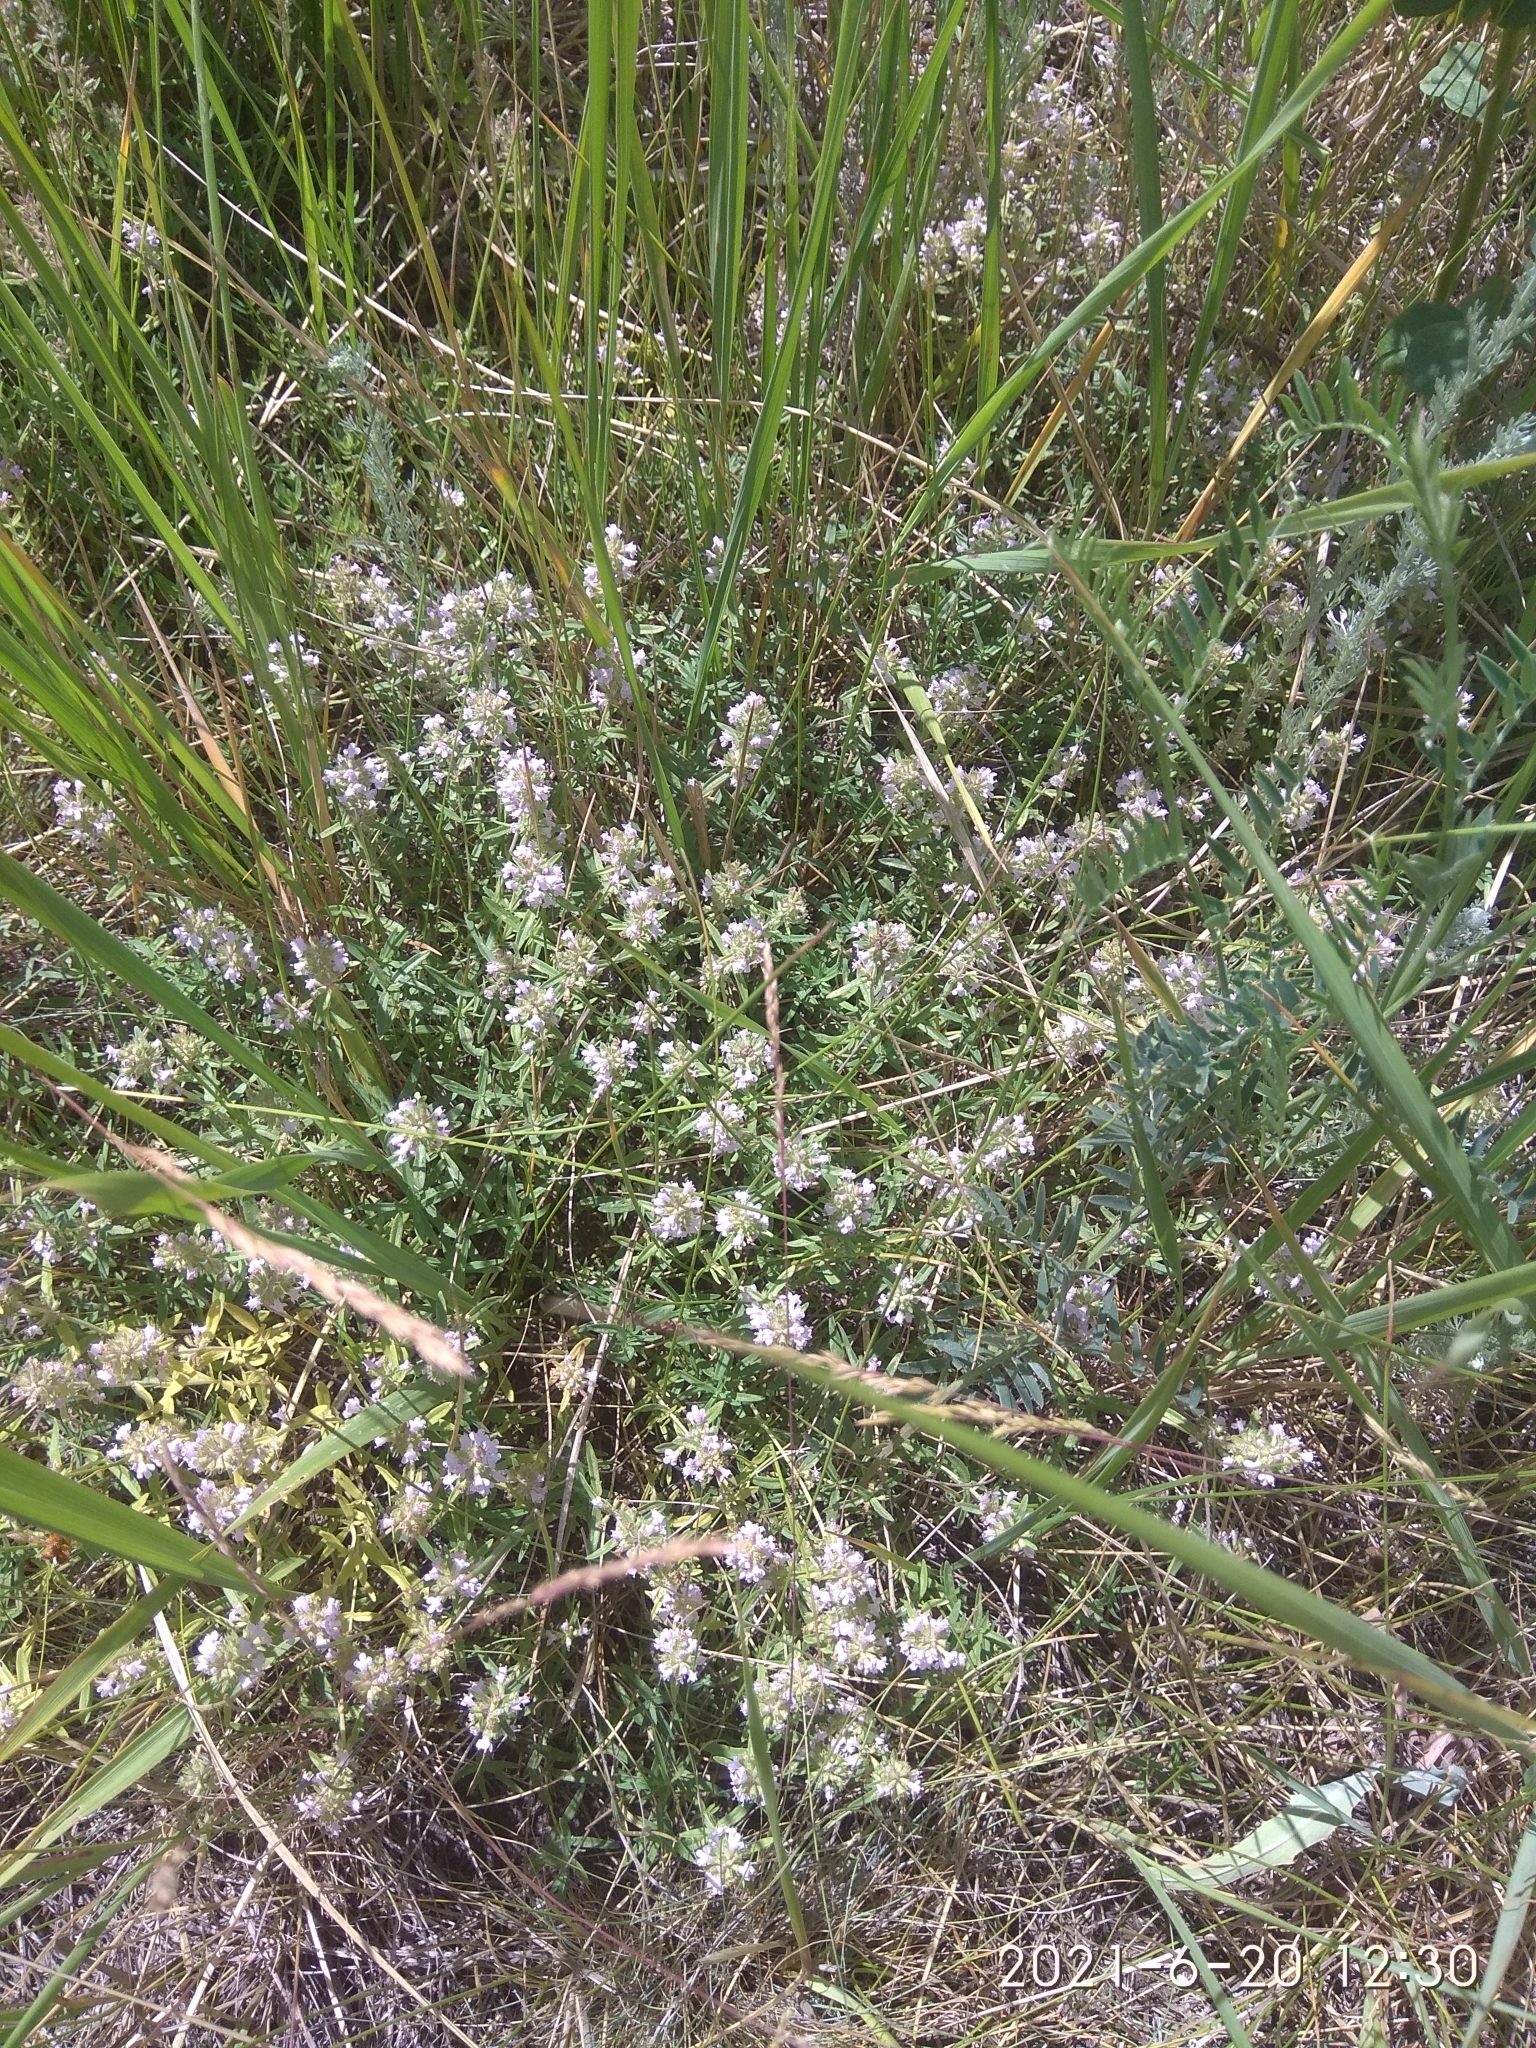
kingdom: Plantae
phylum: Tracheophyta
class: Magnoliopsida
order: Lamiales
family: Lamiaceae
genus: Thymus
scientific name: Thymus pannonicus
